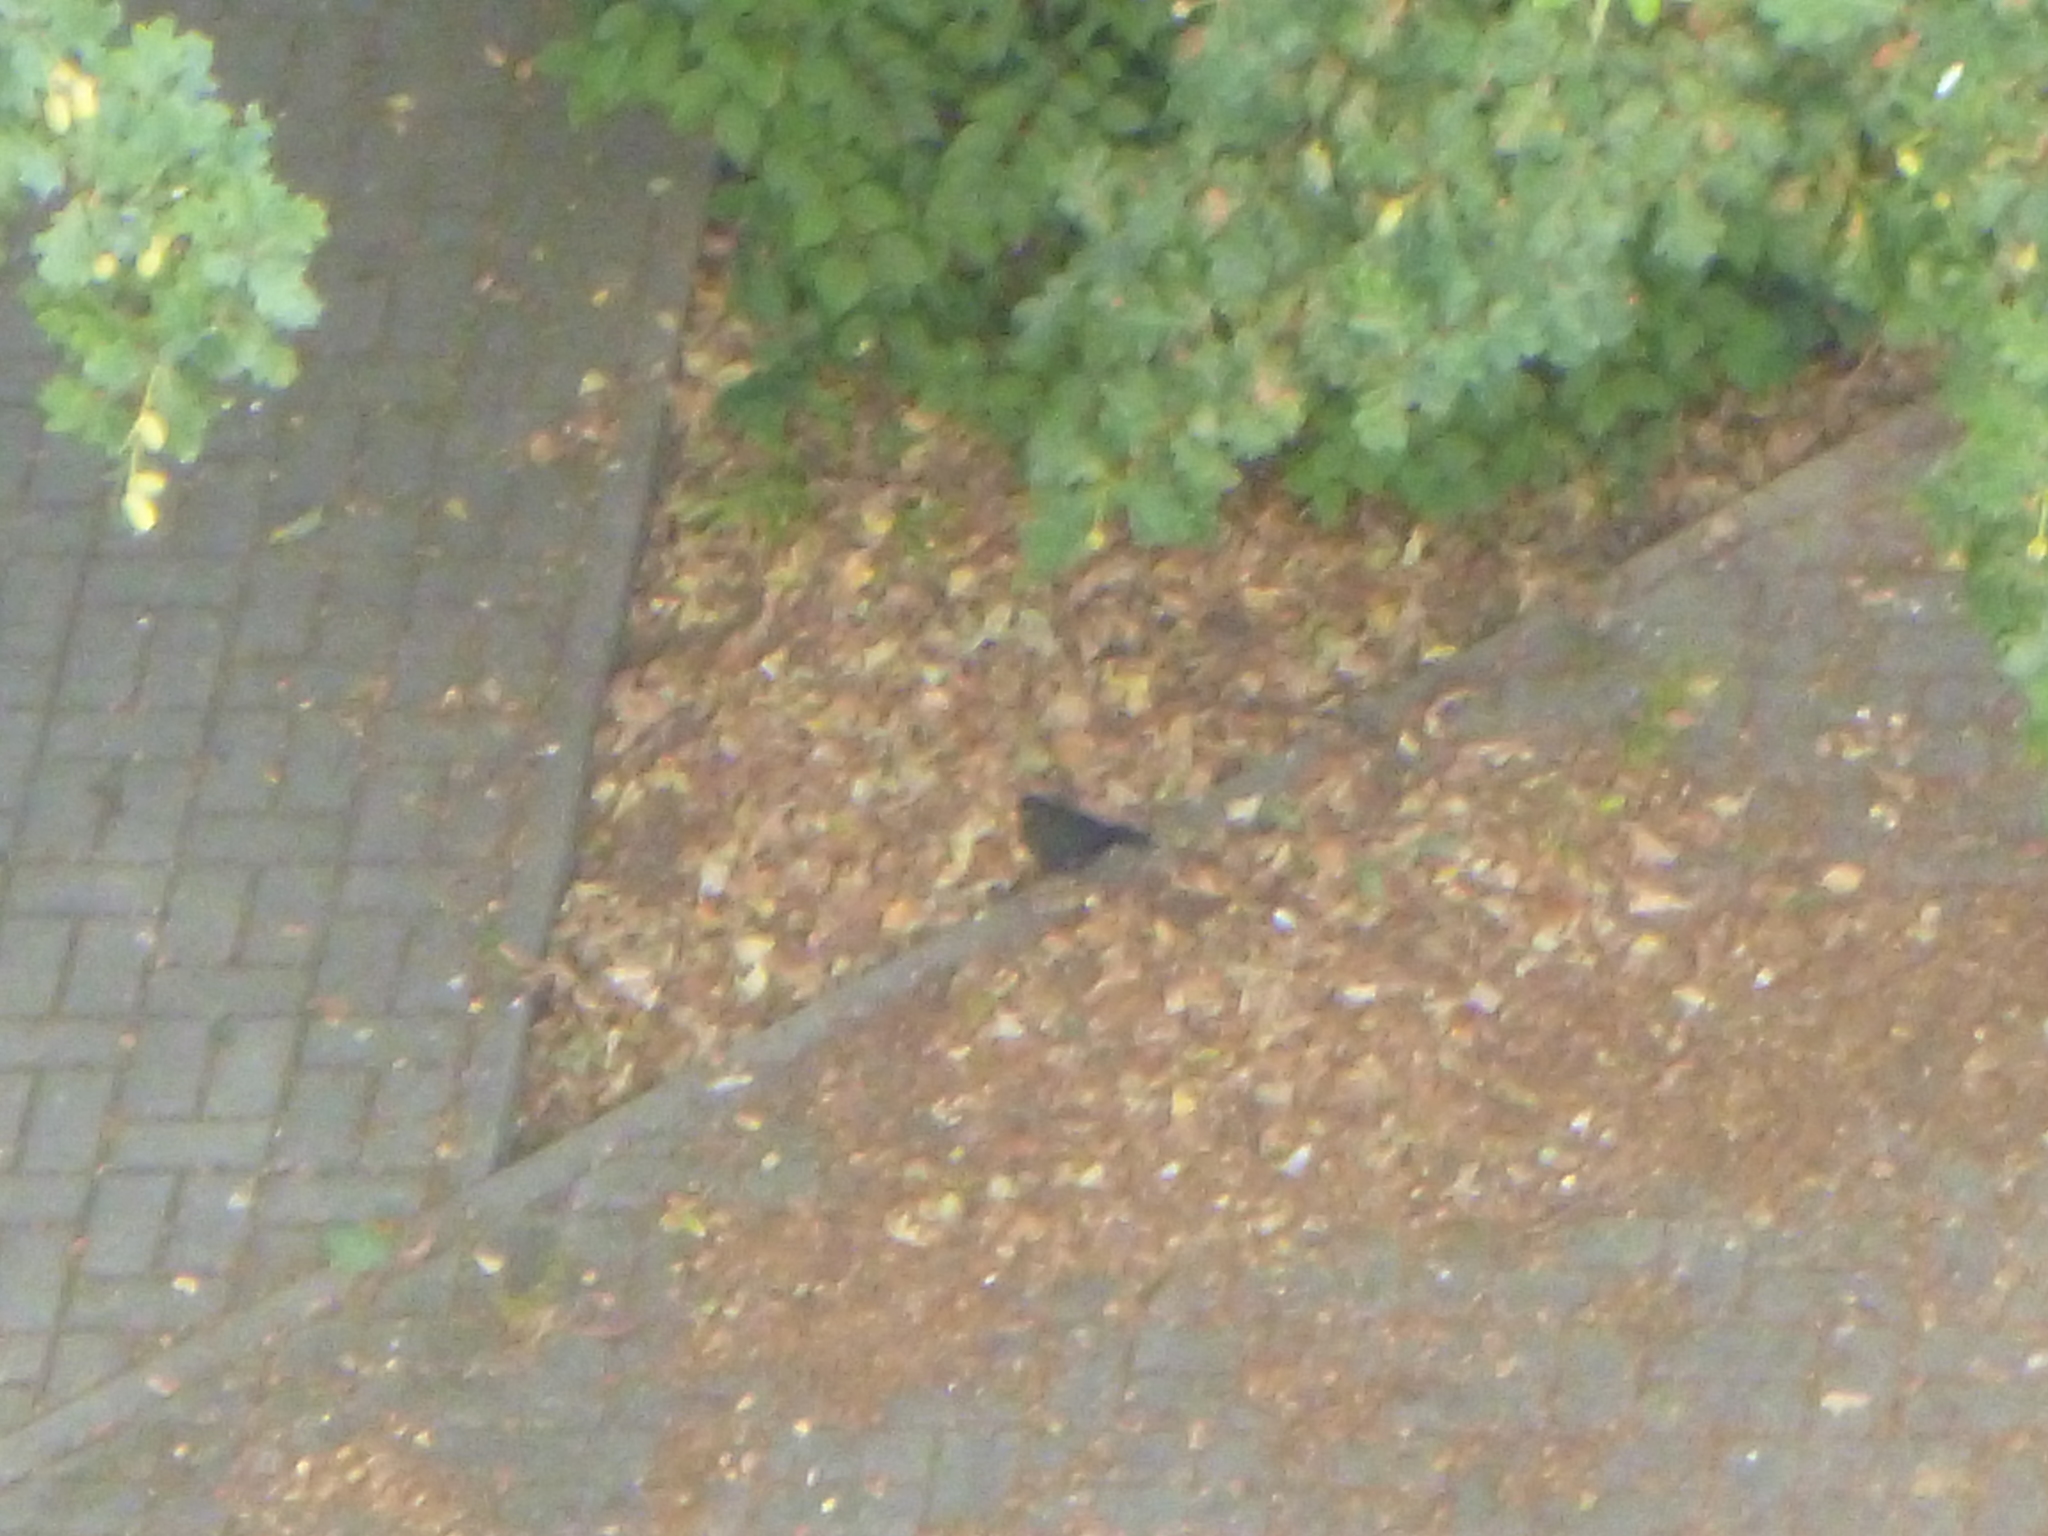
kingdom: Animalia
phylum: Chordata
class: Aves
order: Passeriformes
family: Turdidae
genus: Turdus
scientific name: Turdus merula
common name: Common blackbird
